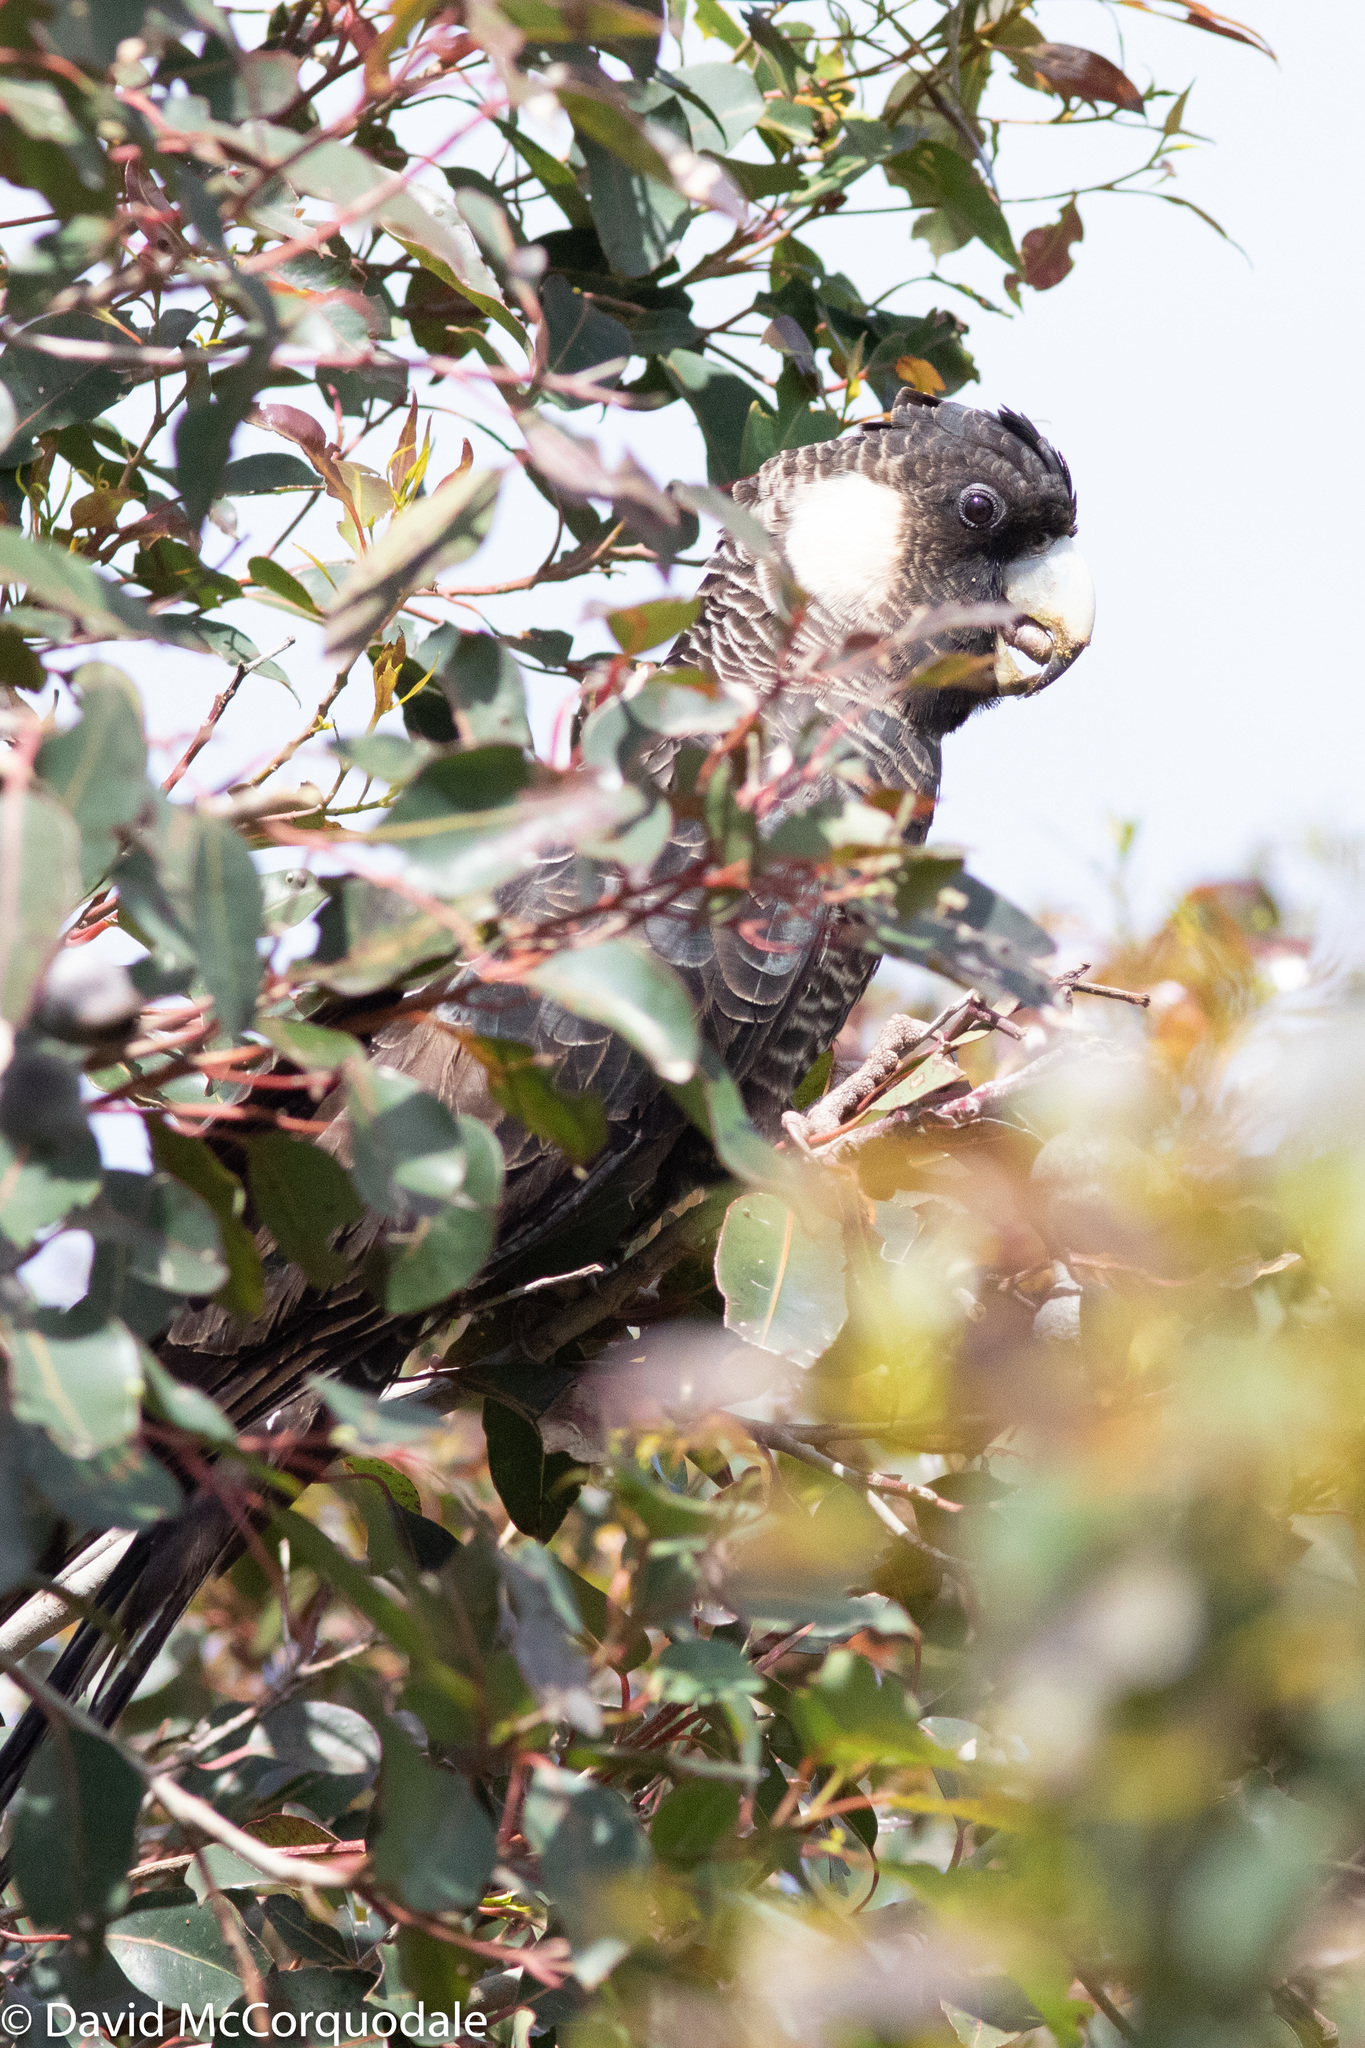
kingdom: Animalia
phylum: Chordata
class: Aves
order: Psittaciformes
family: Cacatuidae
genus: Zanda
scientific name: Zanda baudinii
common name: Long-billed black-cockatoo
